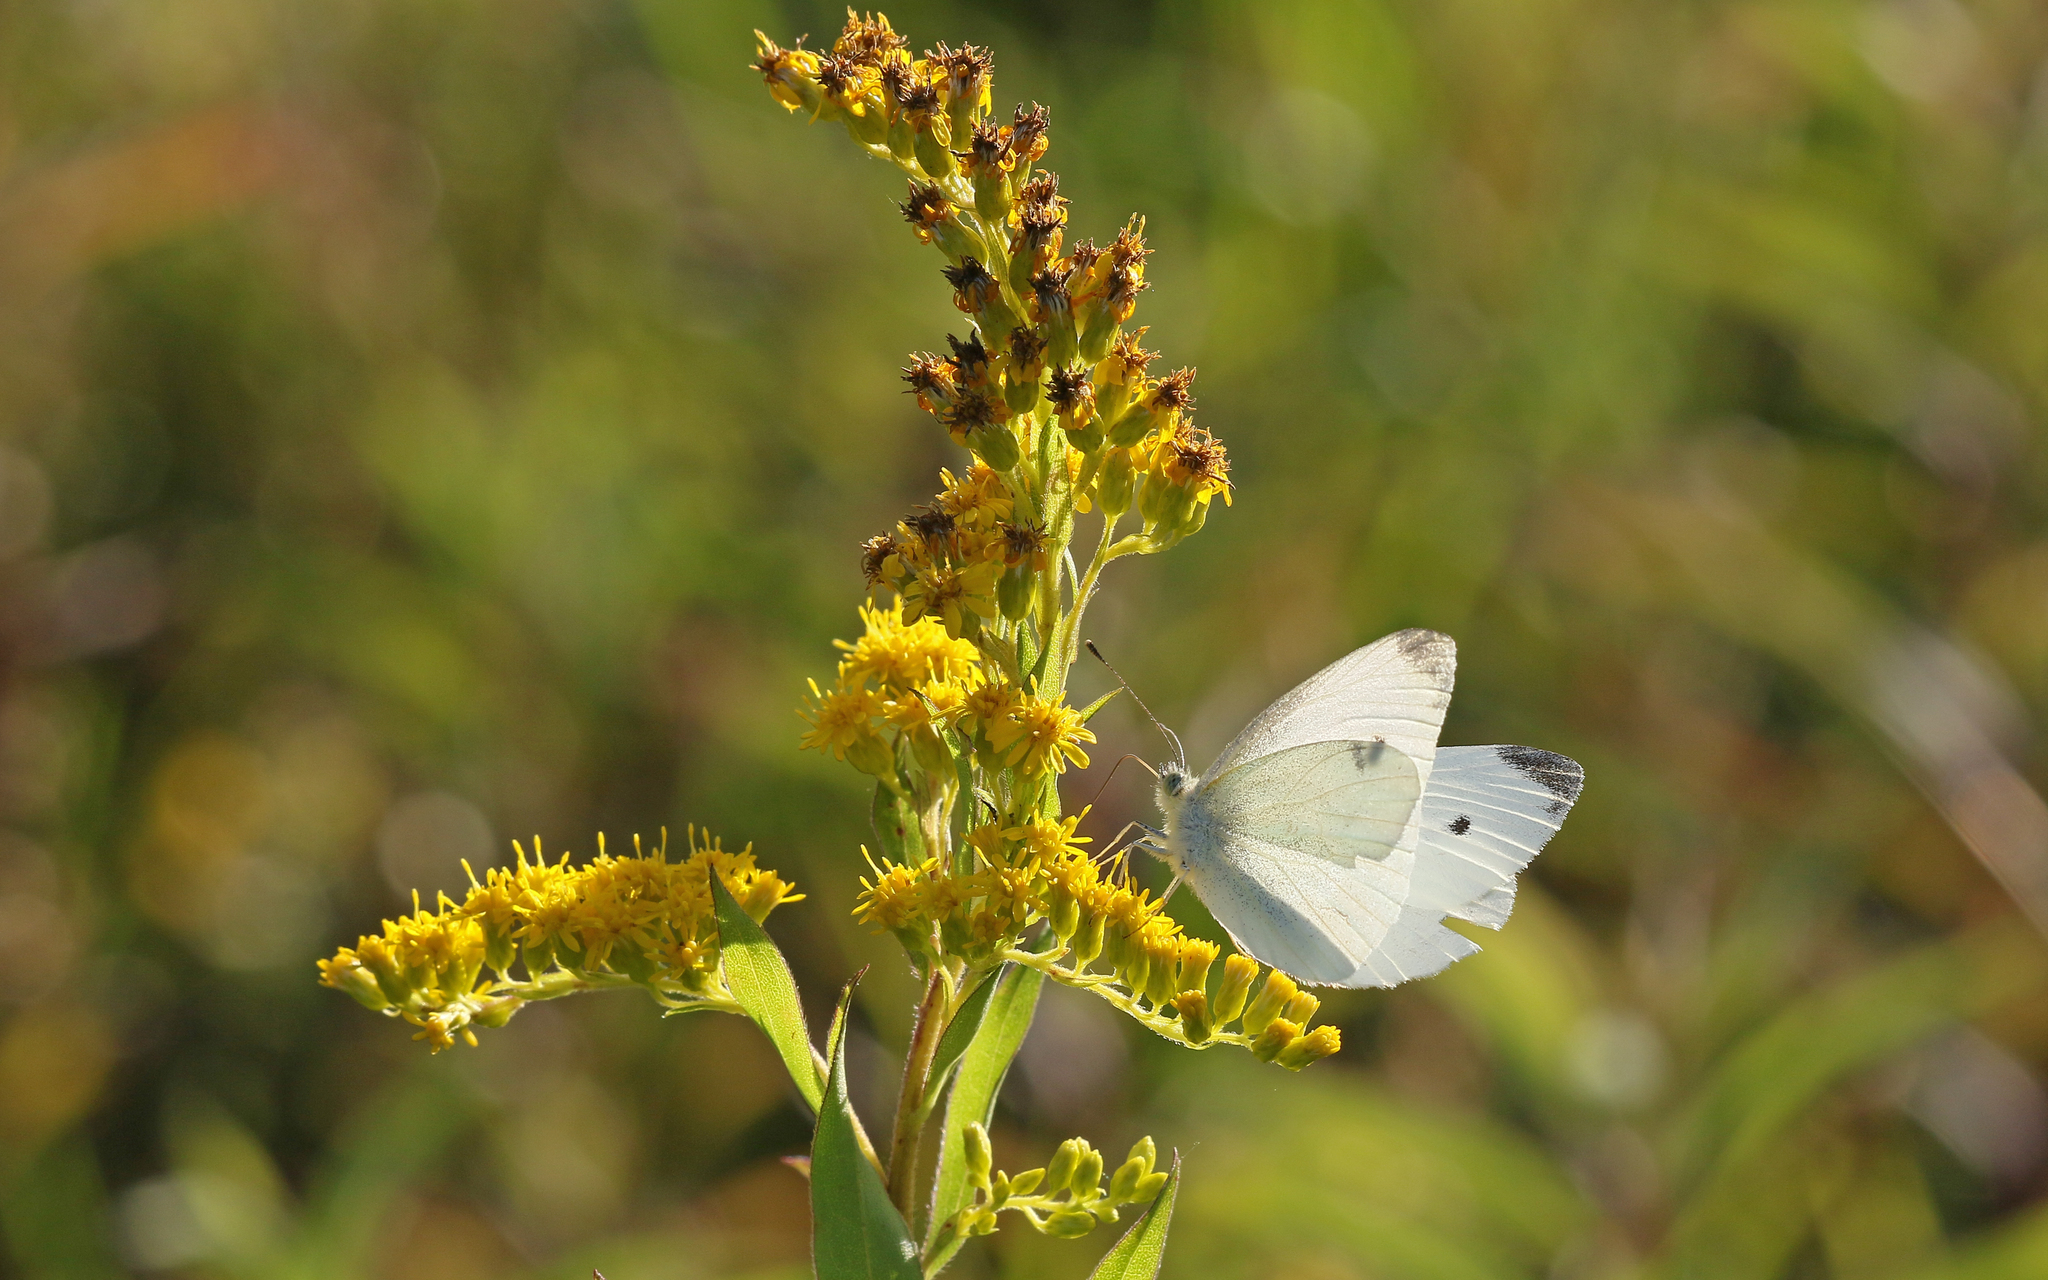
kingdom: Animalia
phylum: Arthropoda
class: Insecta
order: Lepidoptera
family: Pieridae
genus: Pieris
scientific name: Pieris rapae
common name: Small white
